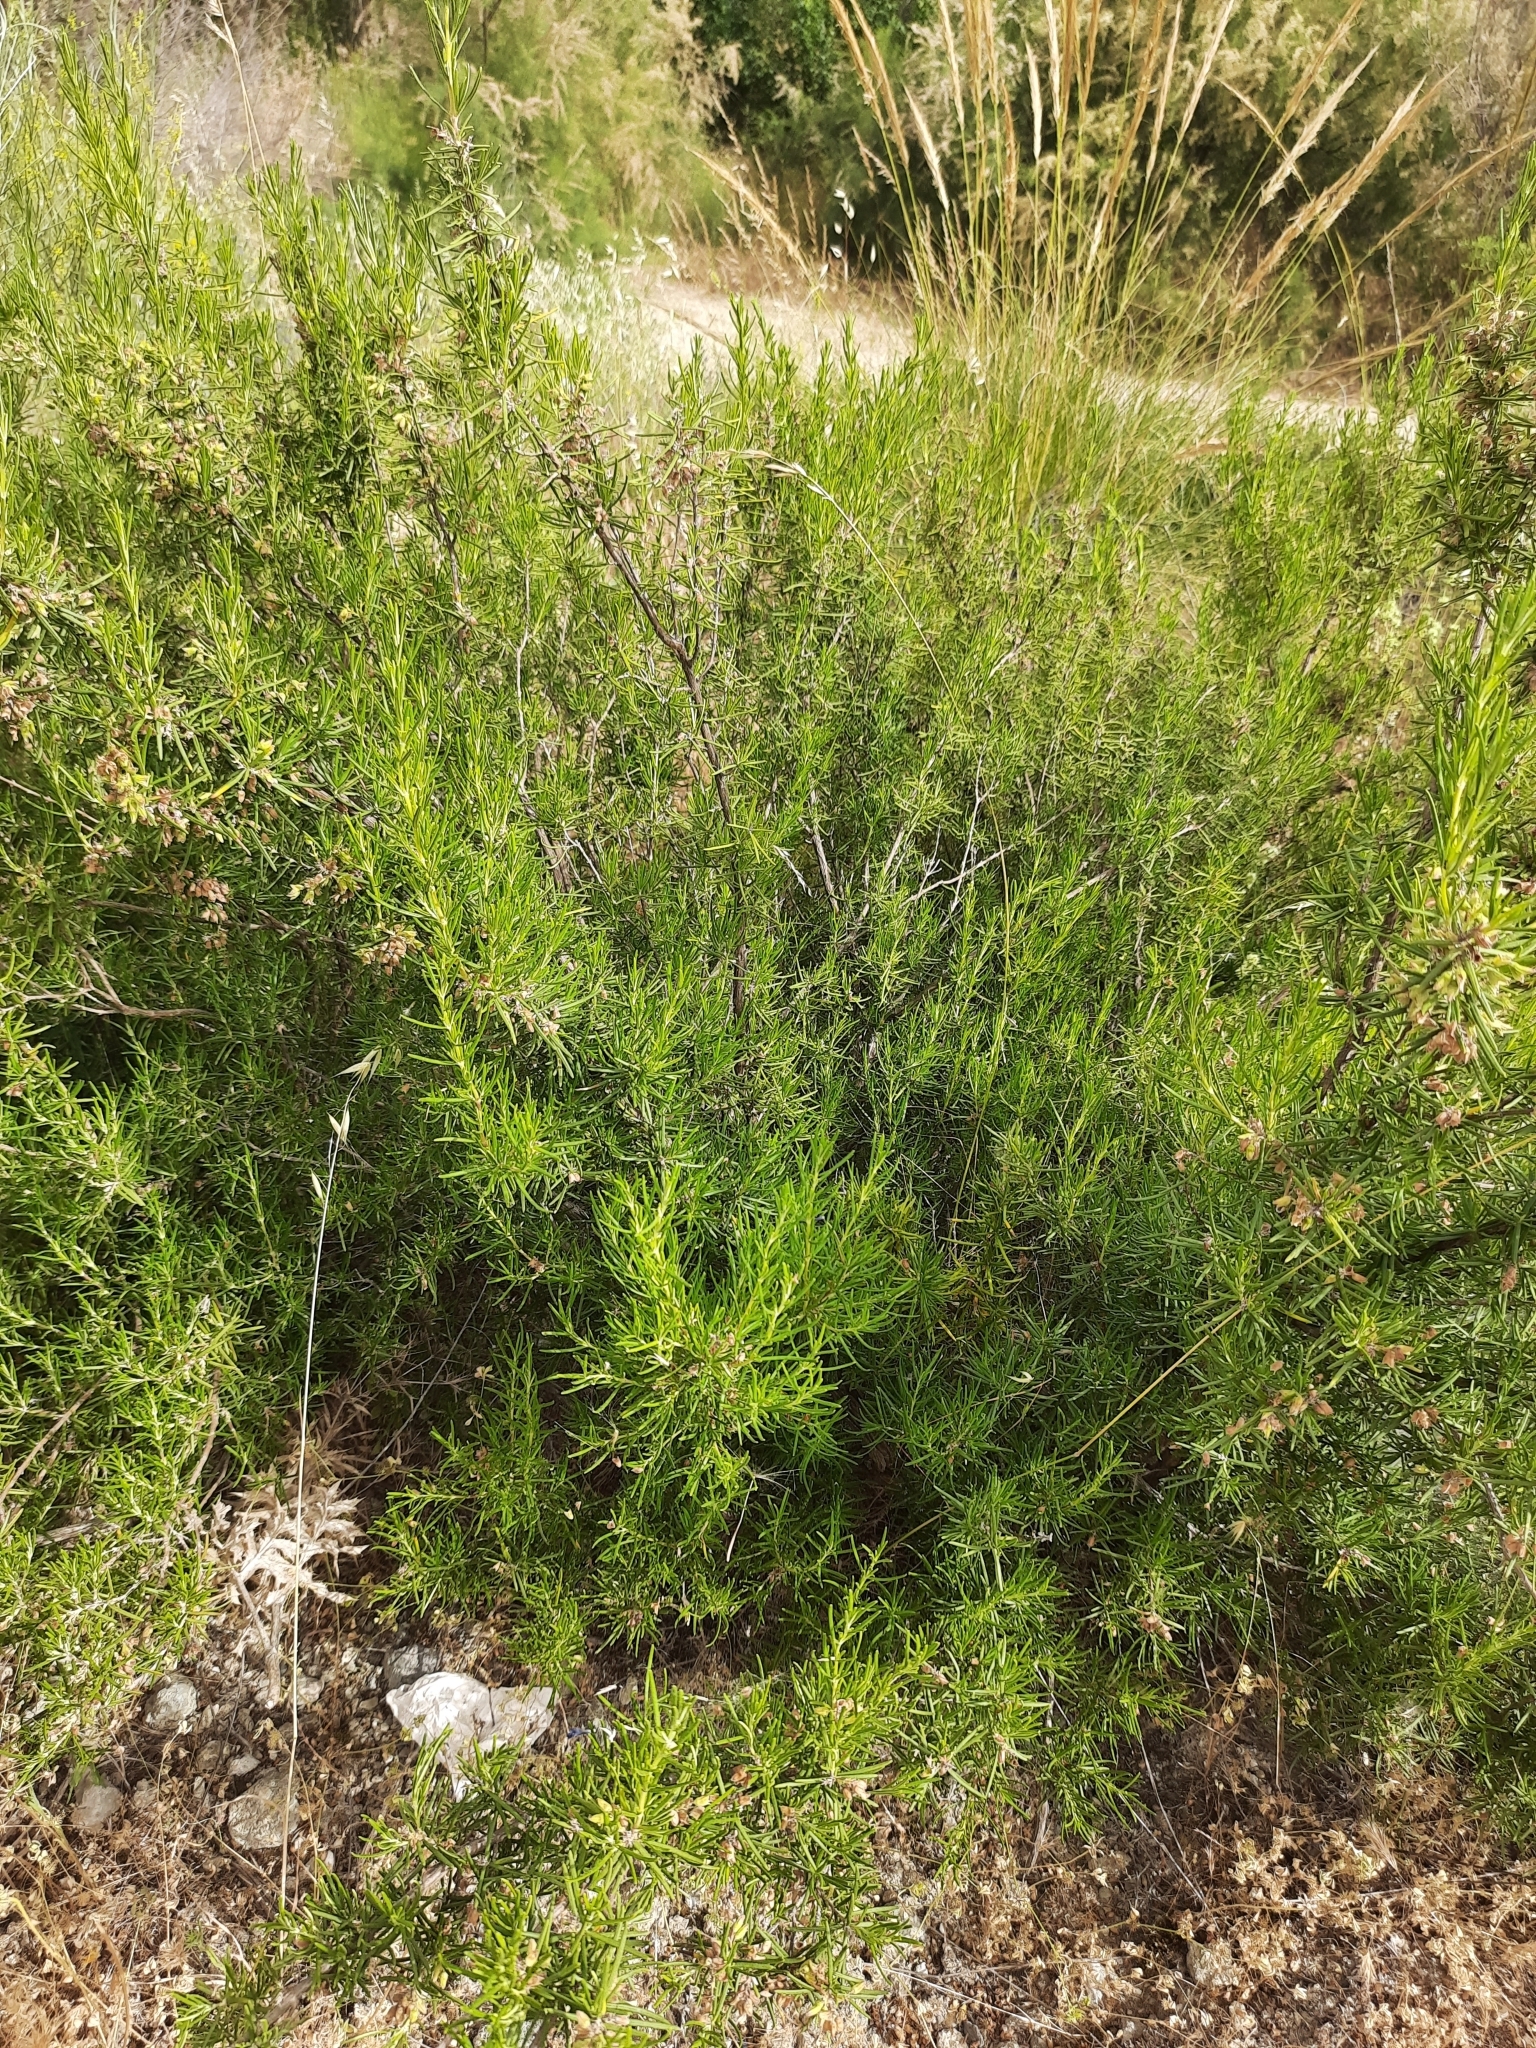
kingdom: Plantae
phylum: Tracheophyta
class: Magnoliopsida
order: Lamiales
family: Lamiaceae
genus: Salvia
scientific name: Salvia rosmarinus
